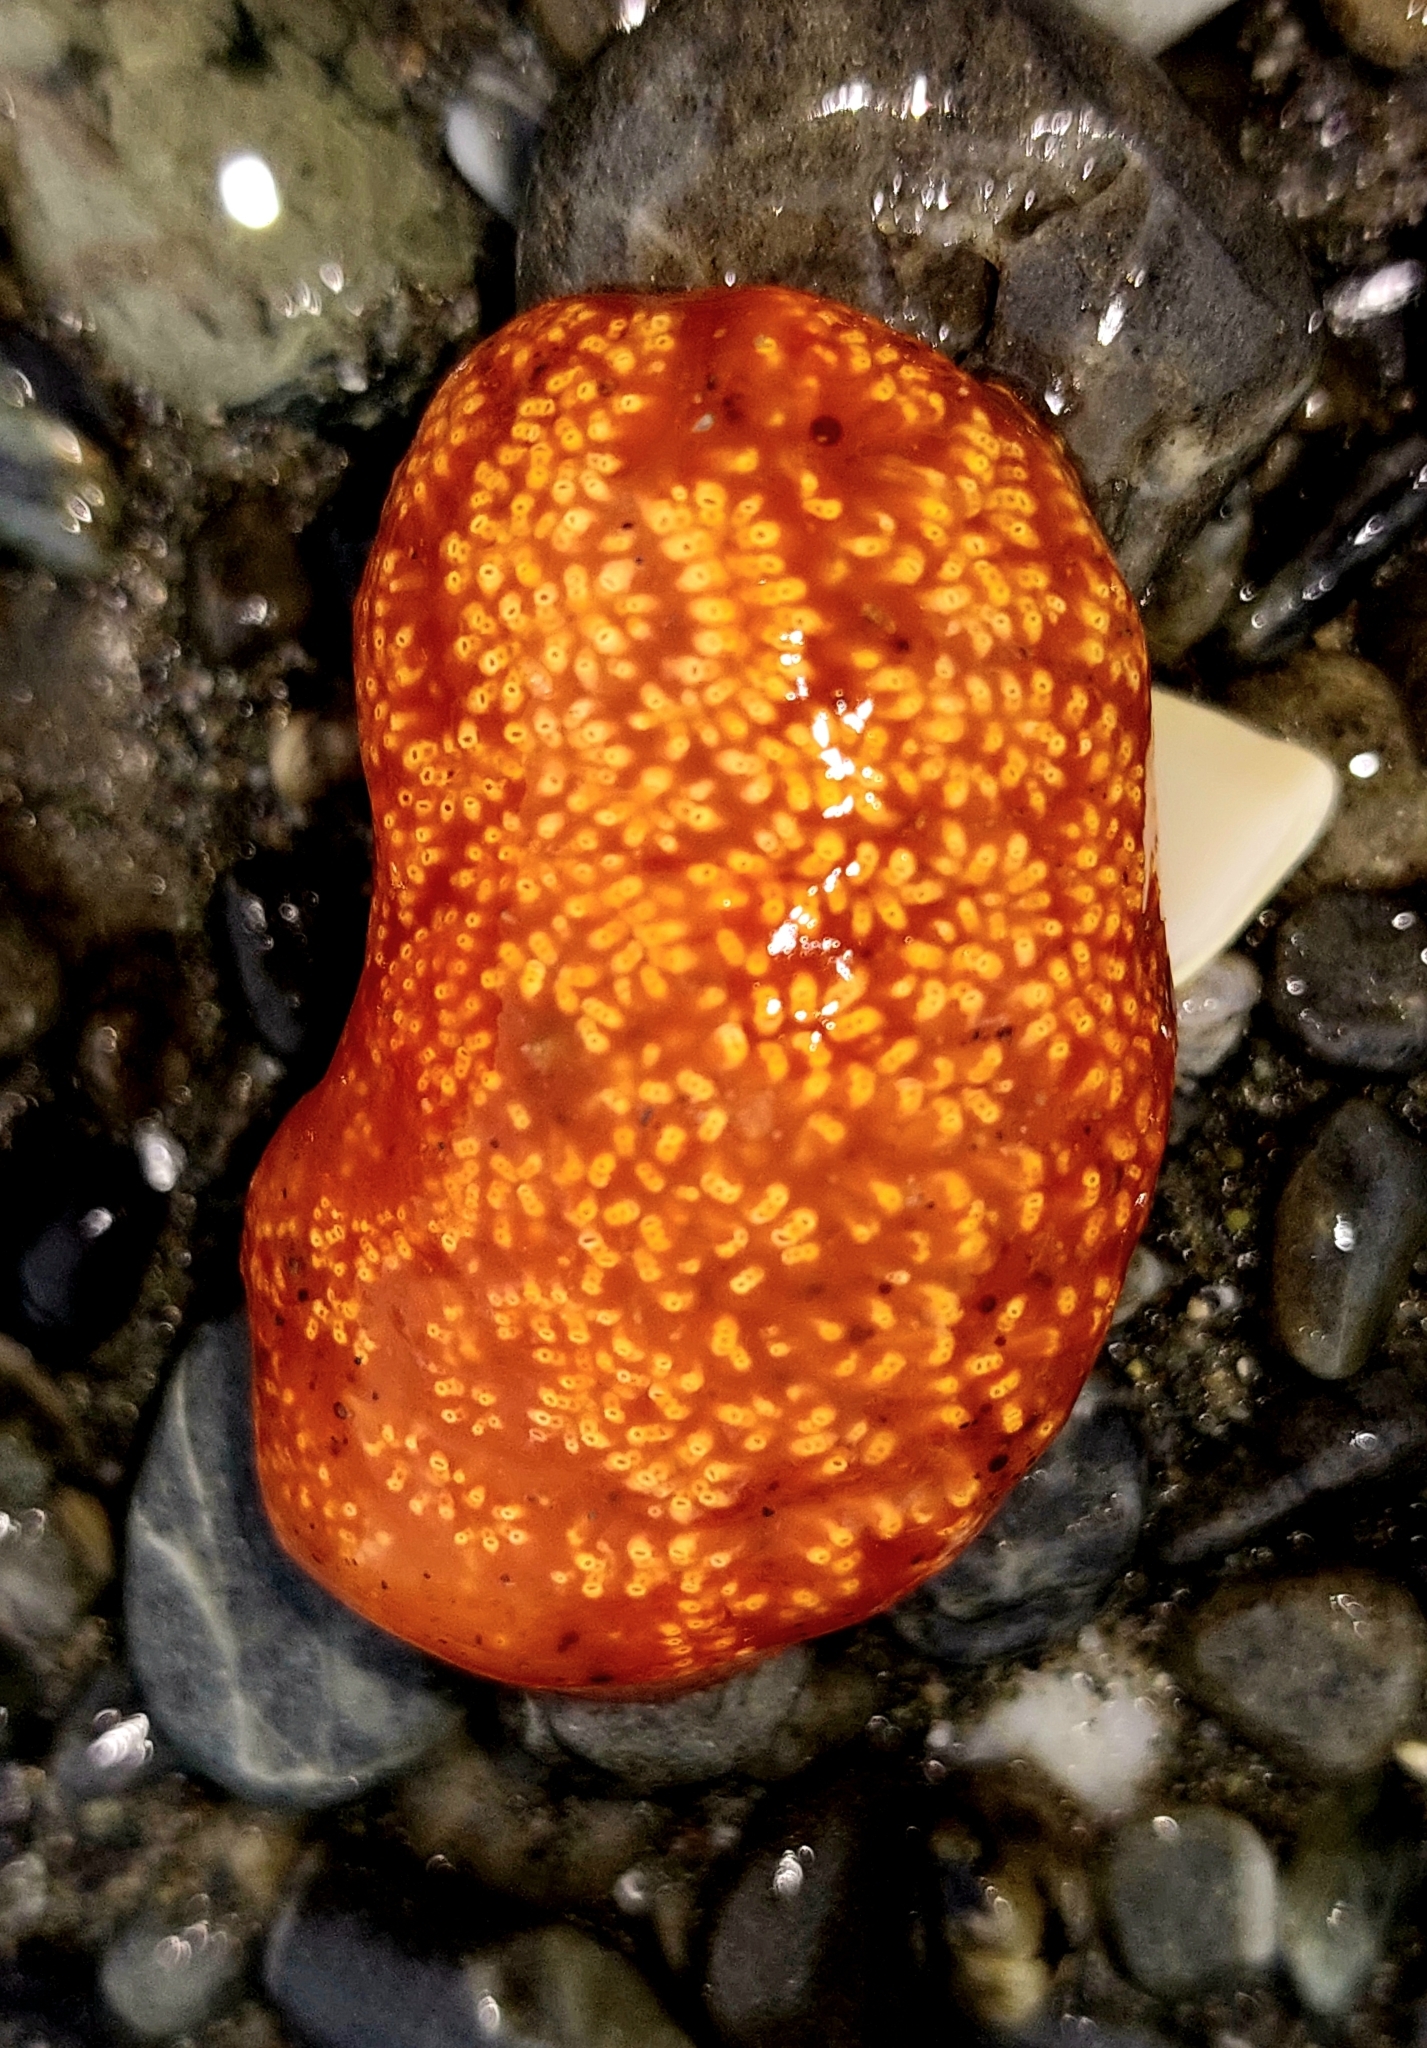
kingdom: Animalia
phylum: Chordata
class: Ascidiacea
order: Aplousobranchia
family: Polyclinidae
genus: Aplidium
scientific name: Aplidium benhami
